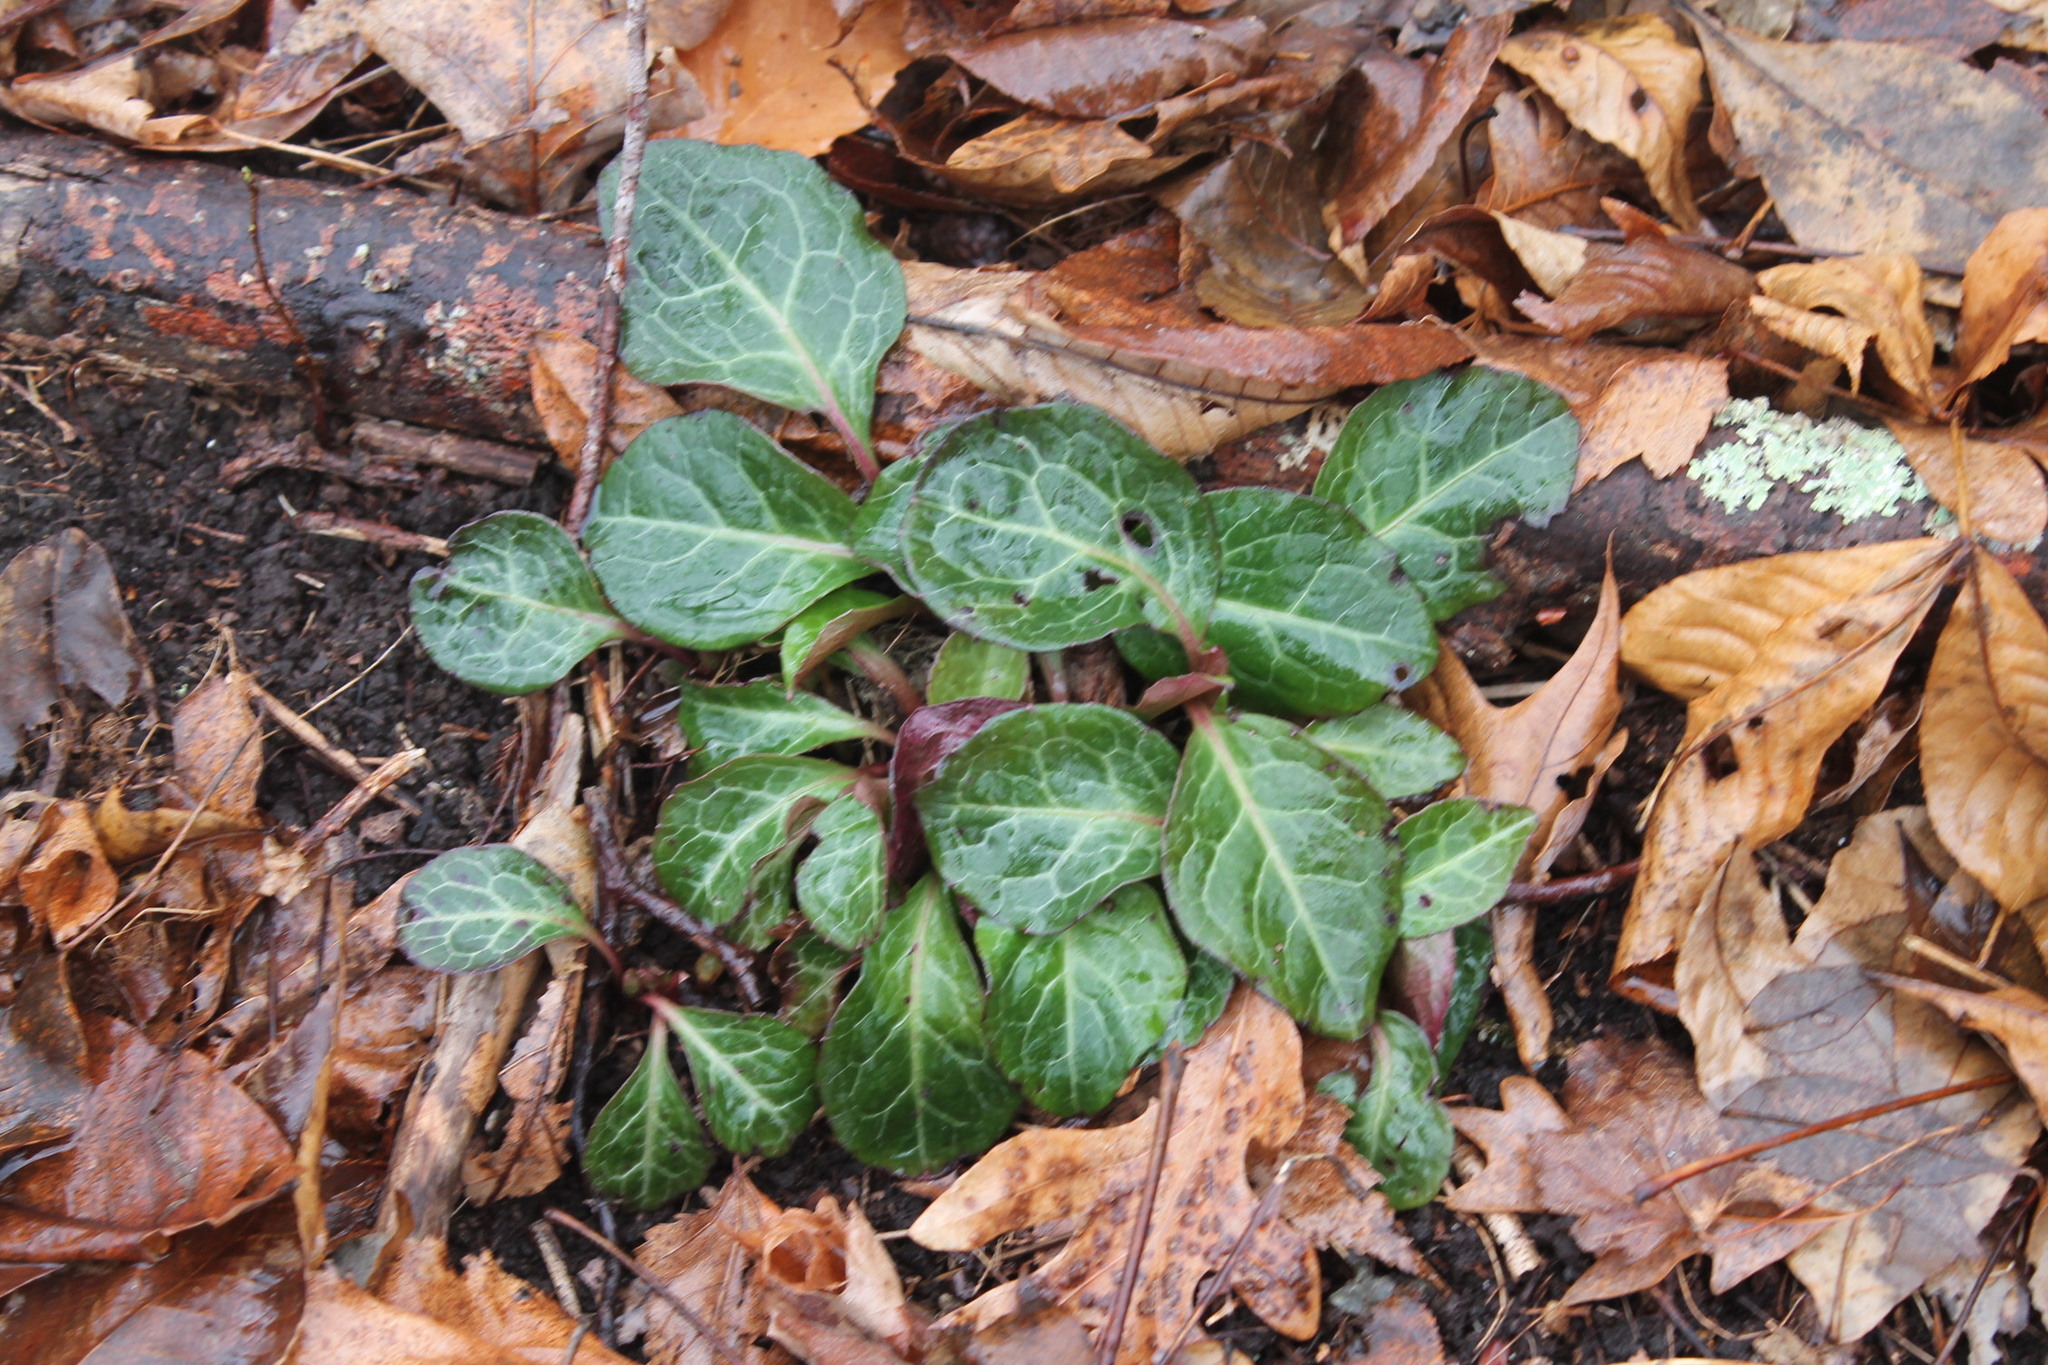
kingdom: Plantae
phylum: Tracheophyta
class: Magnoliopsida
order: Ericales
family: Ericaceae
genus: Pyrola
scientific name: Pyrola americana
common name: American wintergreen
